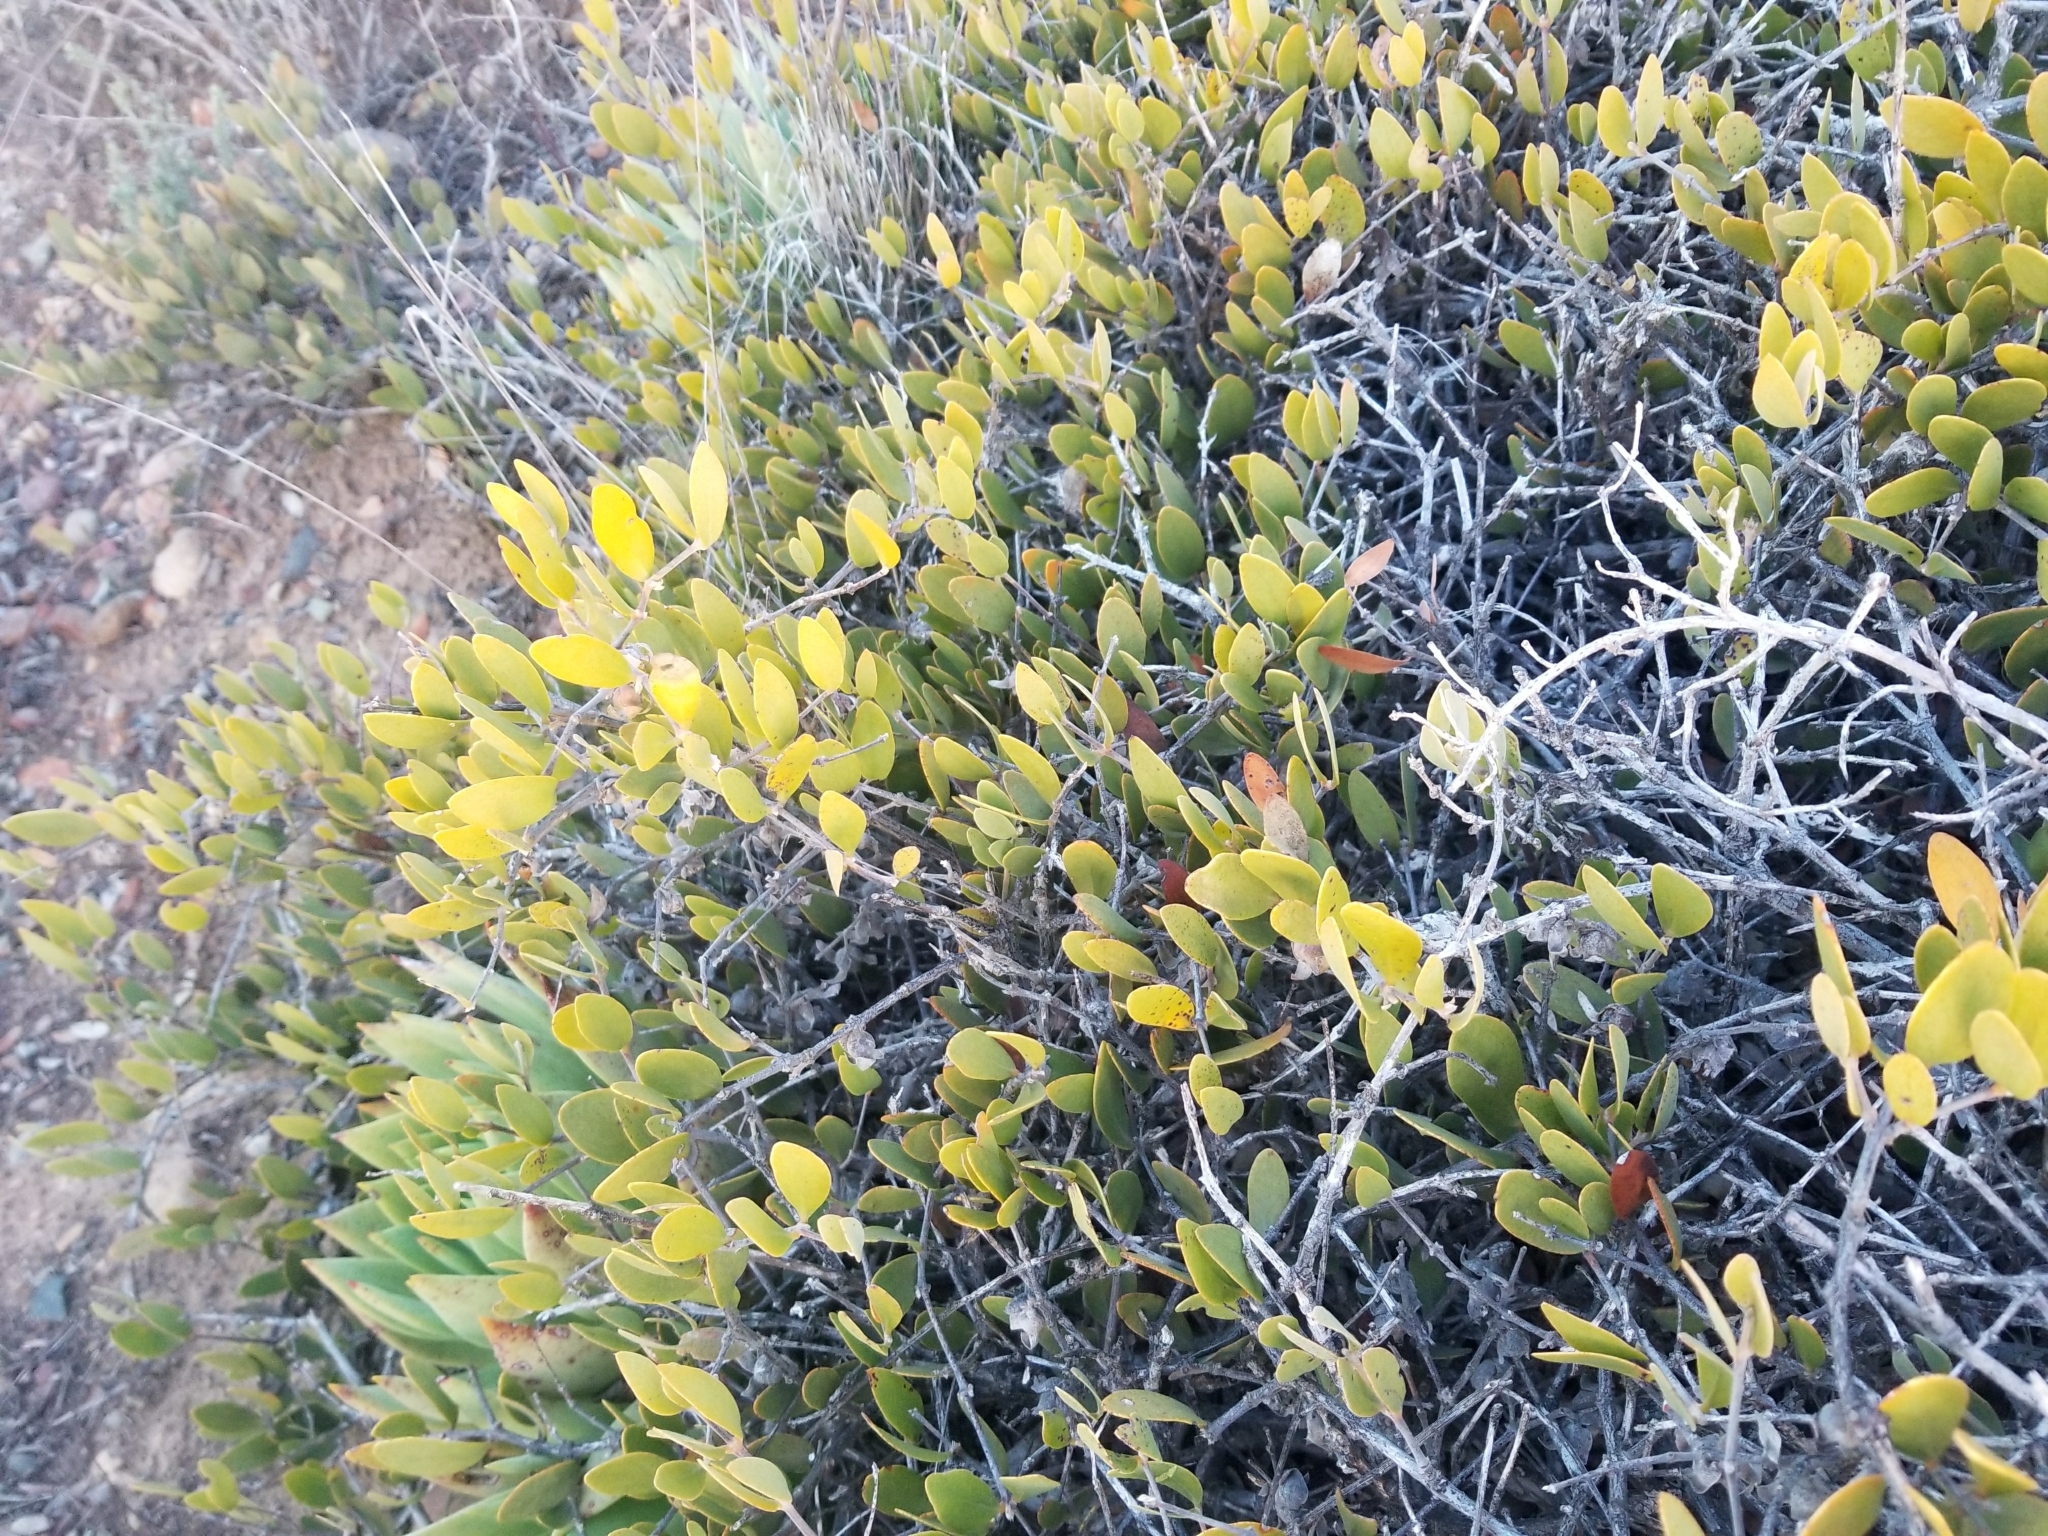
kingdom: Plantae
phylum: Tracheophyta
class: Magnoliopsida
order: Caryophyllales
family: Simmondsiaceae
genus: Simmondsia
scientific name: Simmondsia chinensis
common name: Jojoba
